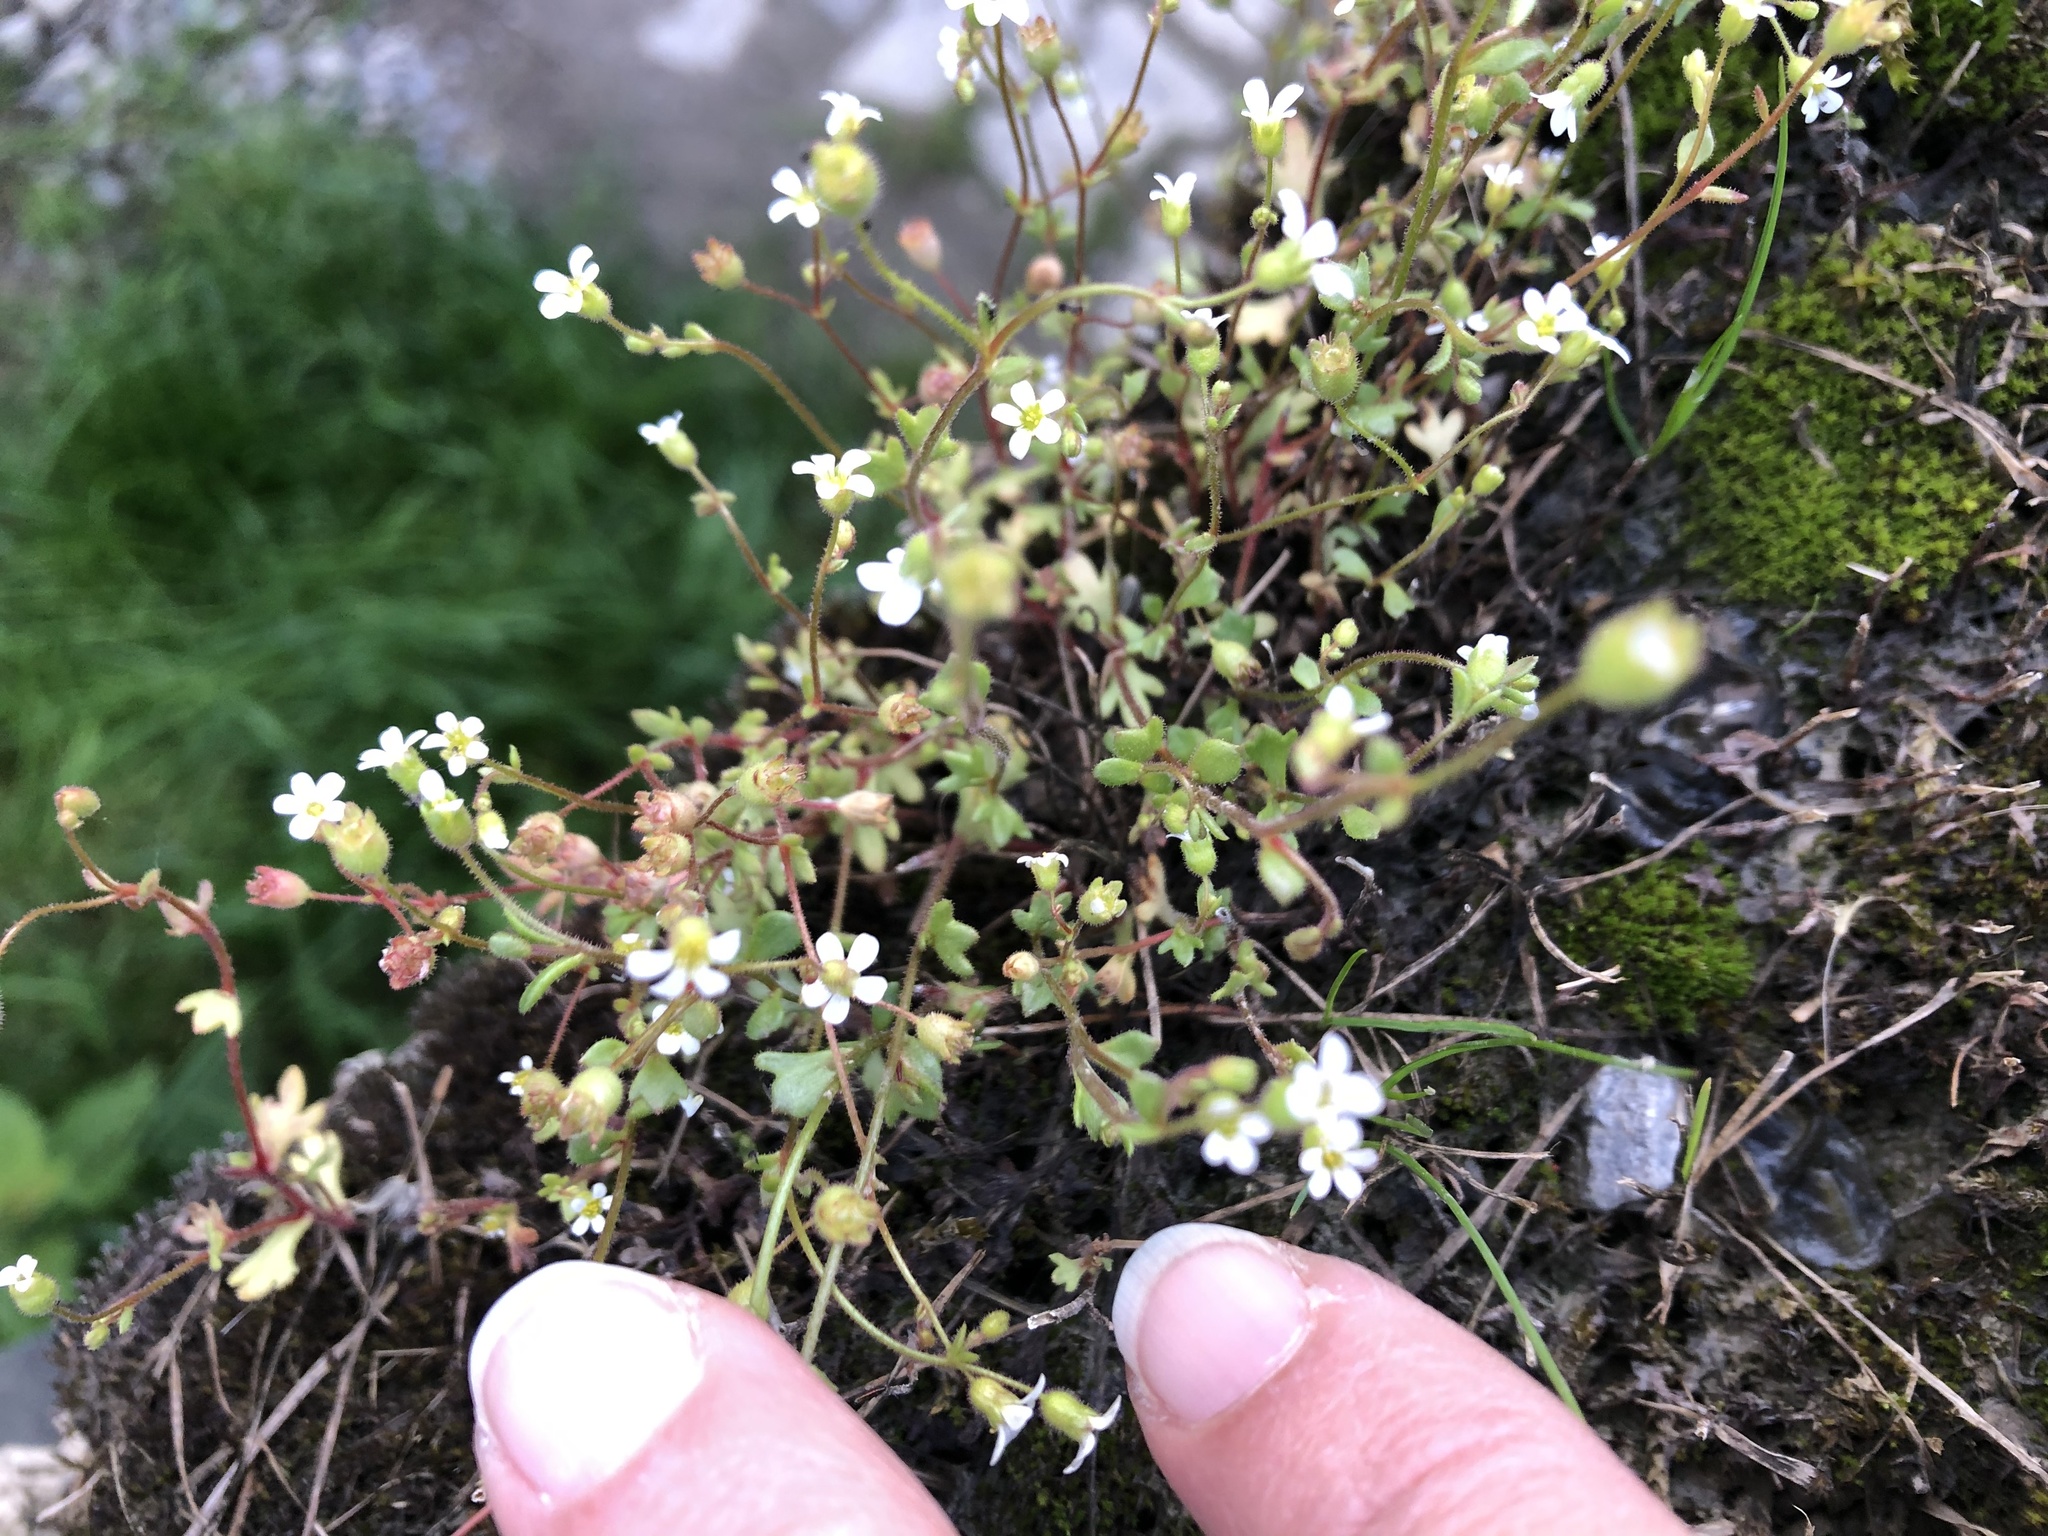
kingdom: Plantae
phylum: Tracheophyta
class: Magnoliopsida
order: Saxifragales
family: Saxifragaceae
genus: Saxifraga
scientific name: Saxifraga tridactylites
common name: Rue-leaved saxifrage
